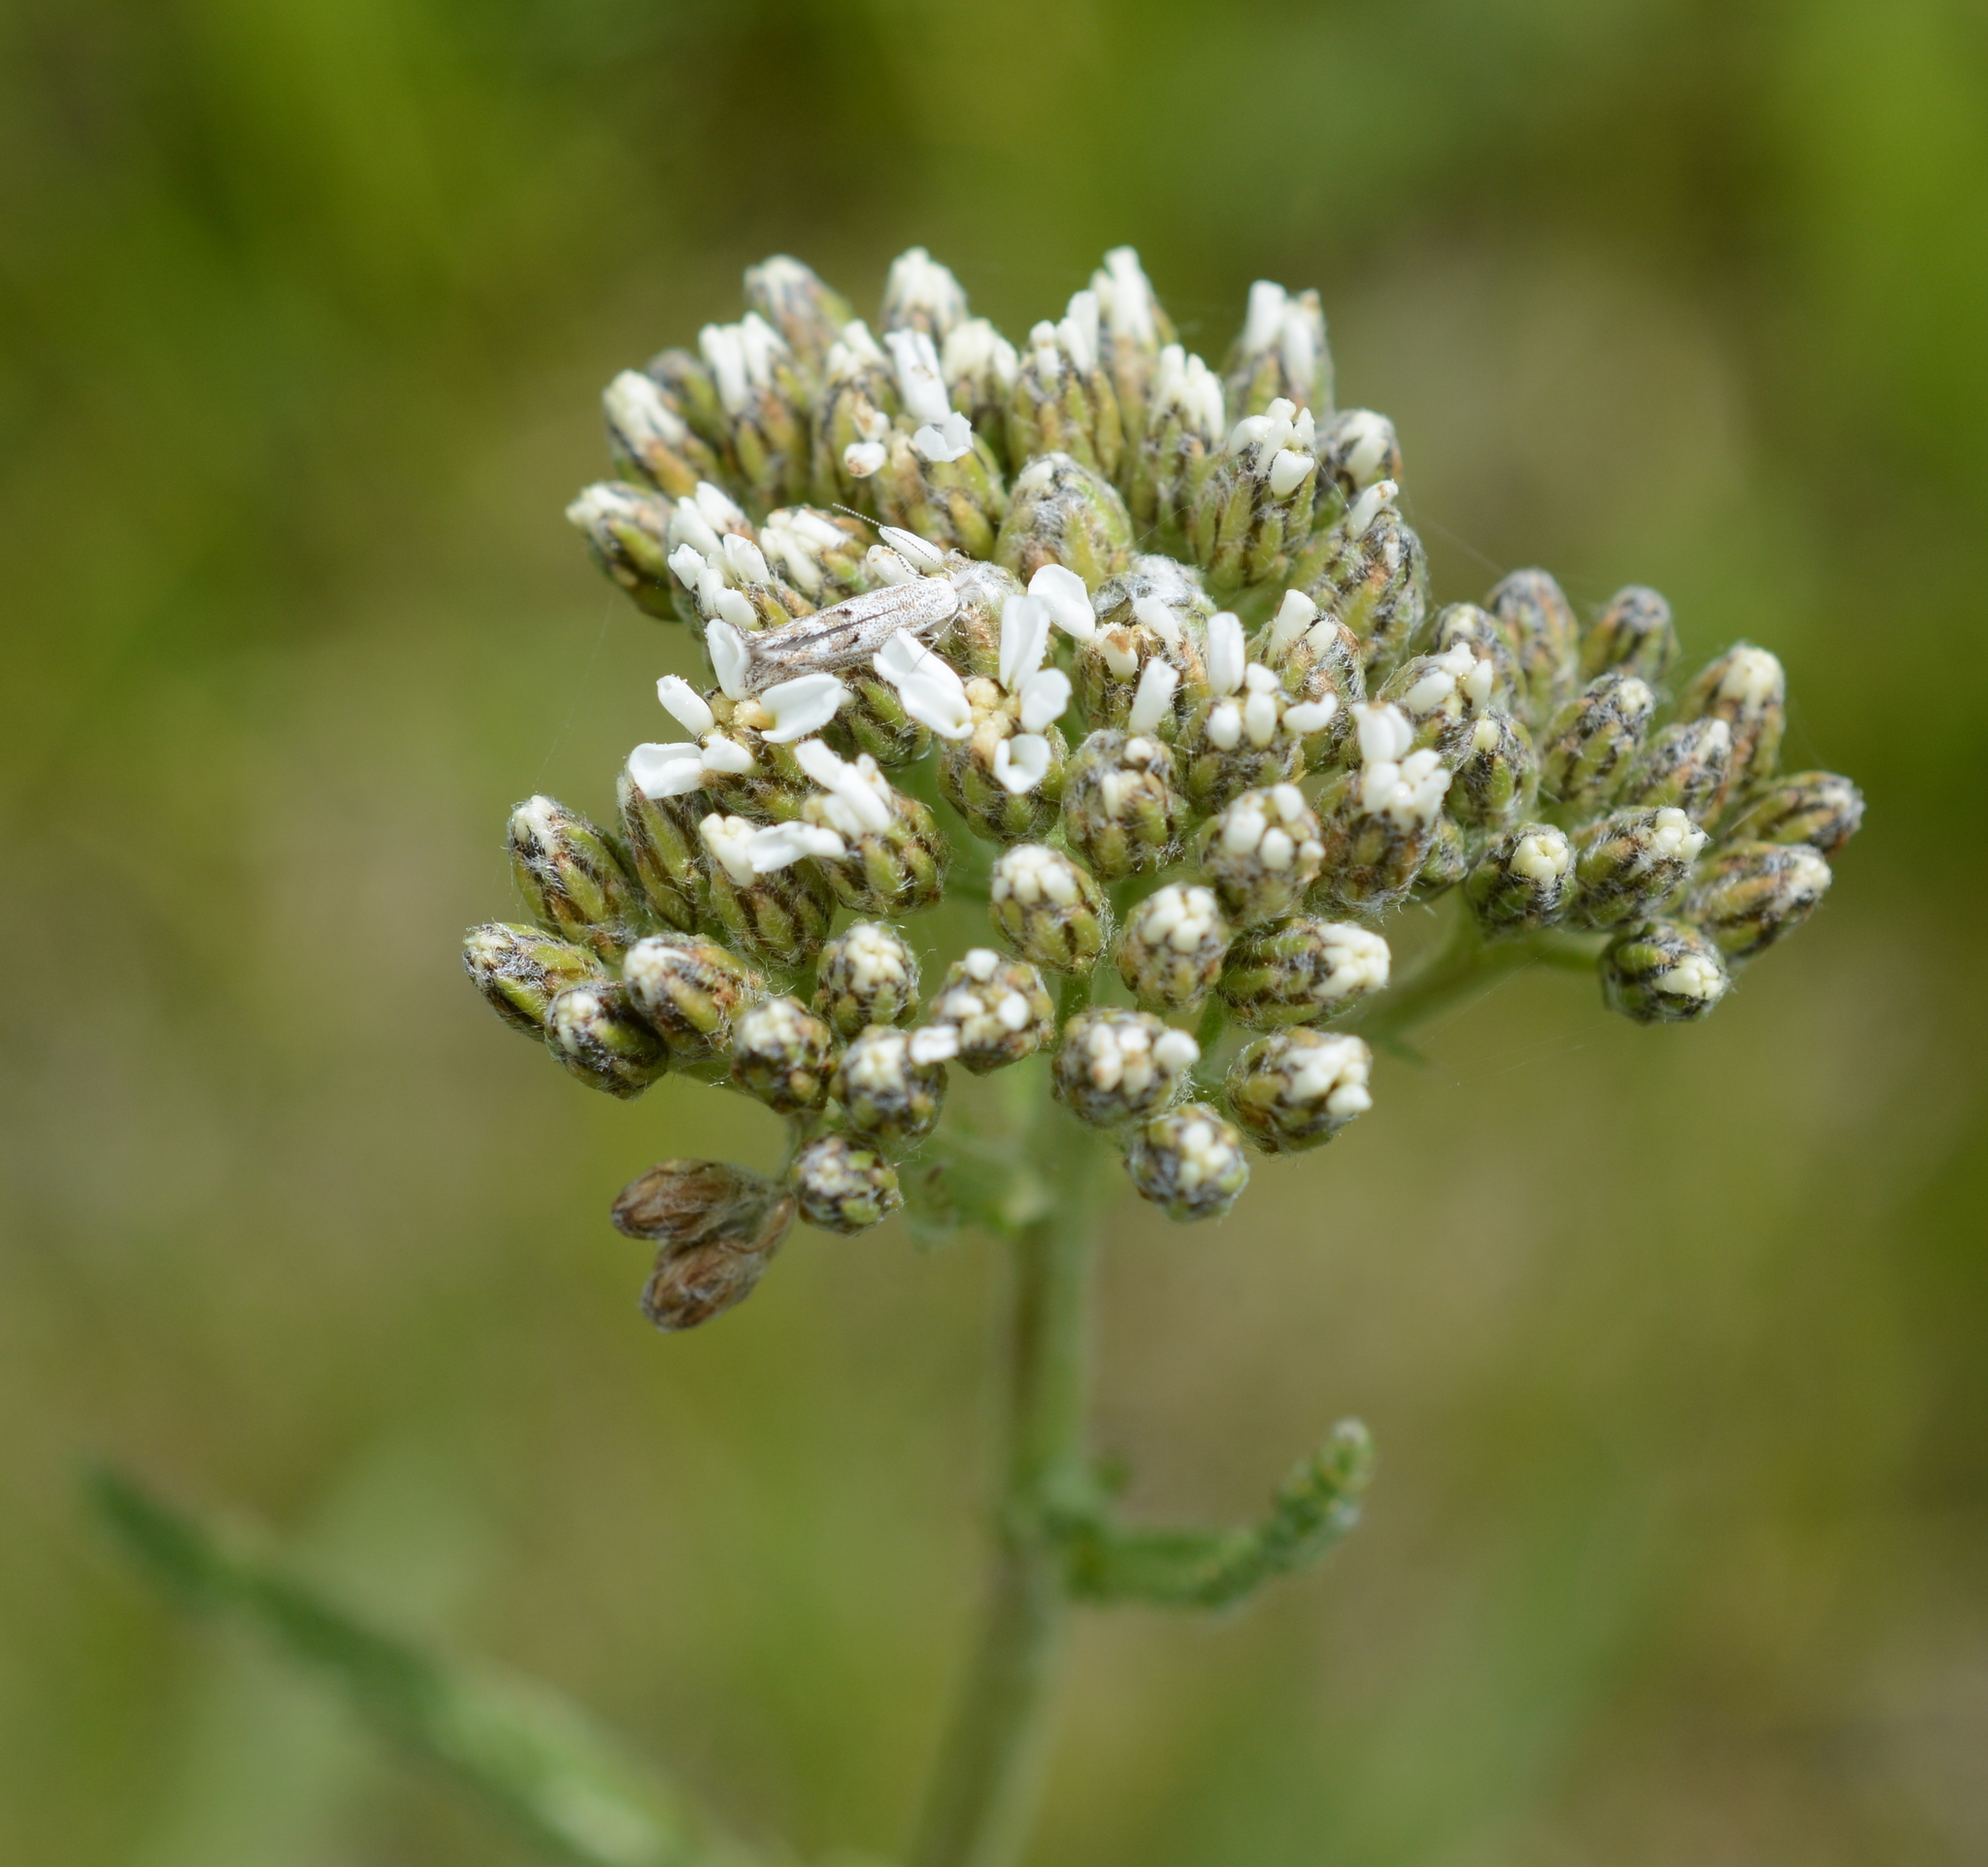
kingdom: Plantae
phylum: Tracheophyta
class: Magnoliopsida
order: Asterales
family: Asteraceae
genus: Achillea
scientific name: Achillea millefolium
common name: Yarrow
